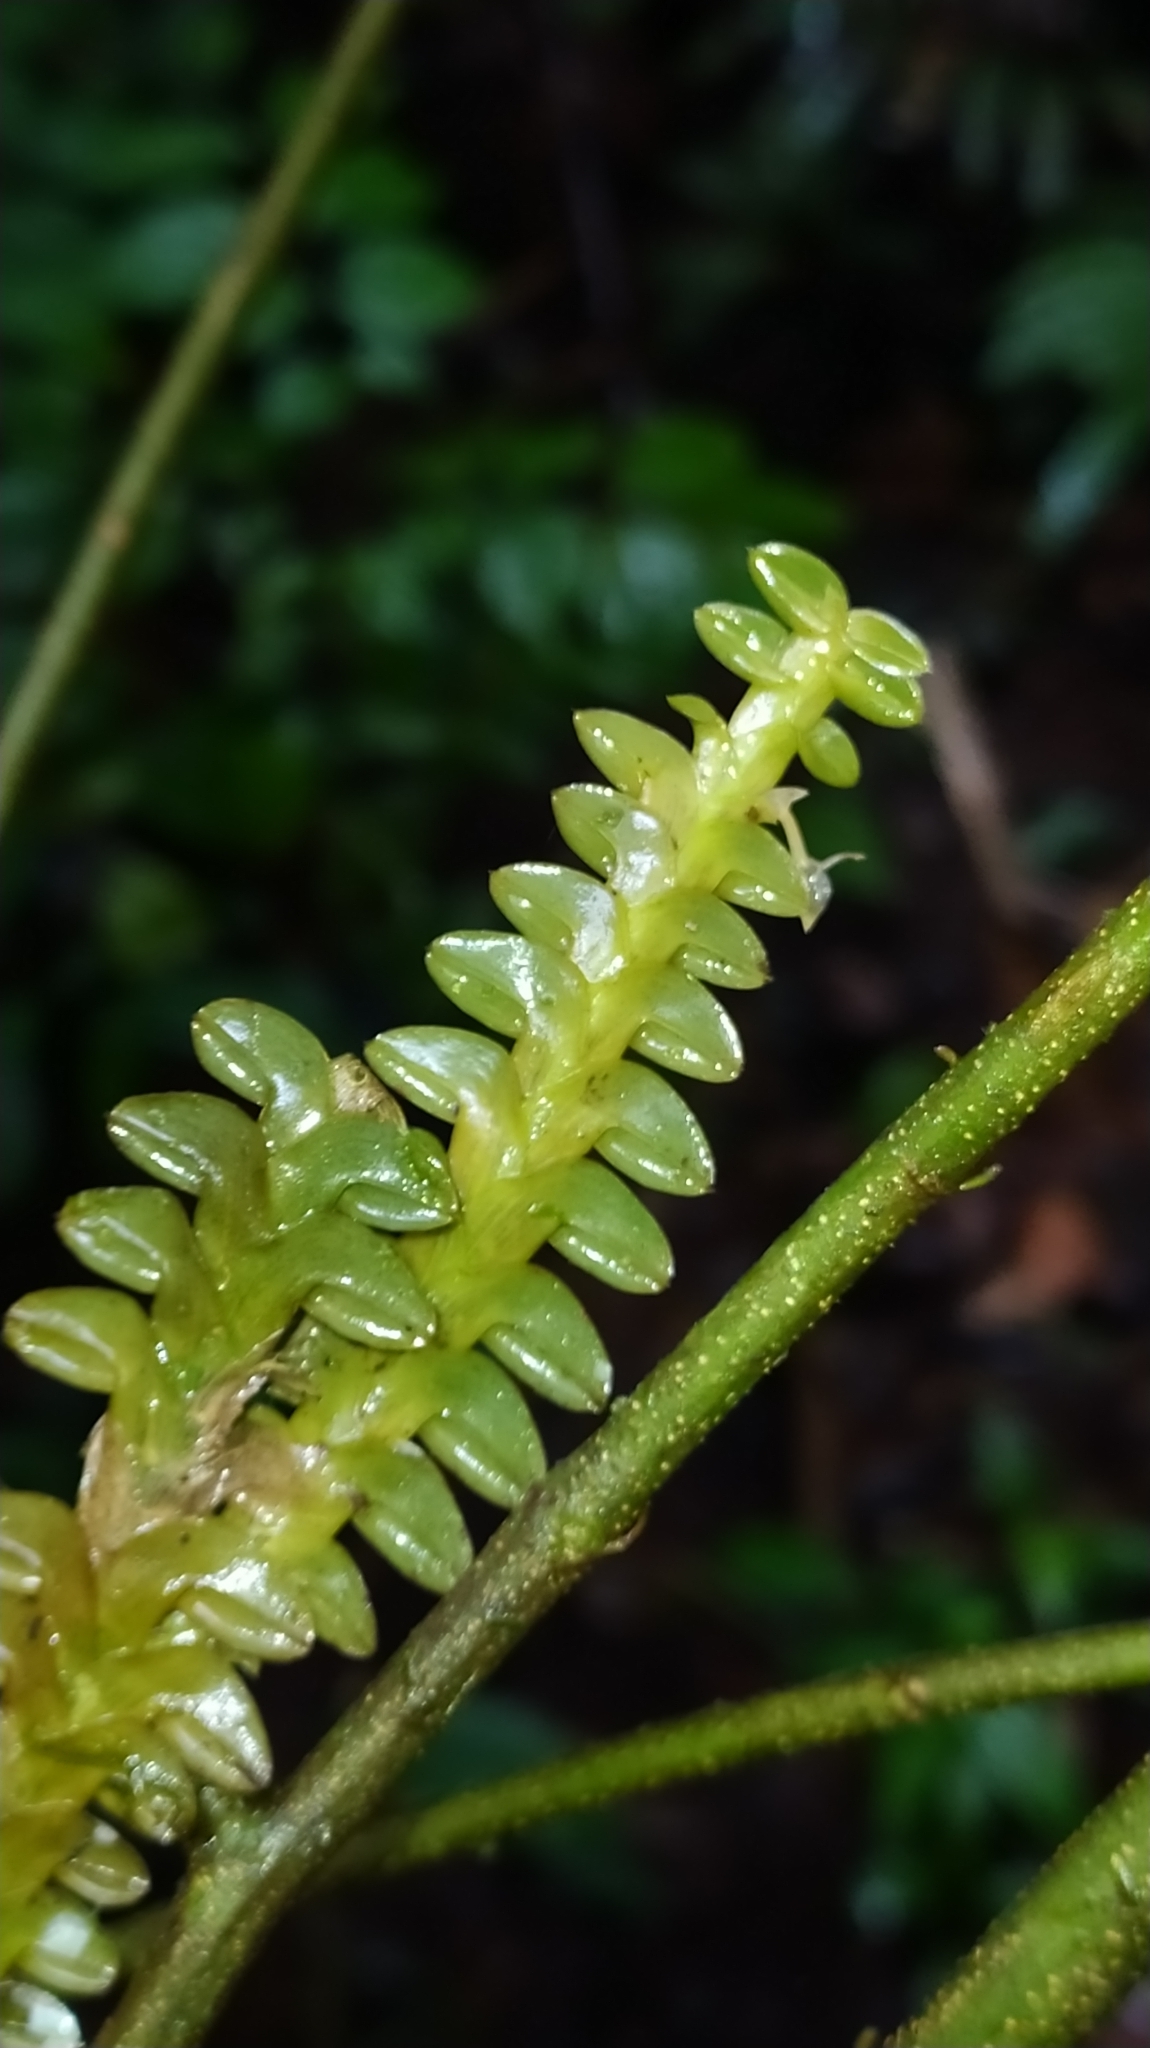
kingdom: Plantae
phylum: Tracheophyta
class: Liliopsida
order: Asparagales
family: Orchidaceae
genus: Dichaea
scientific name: Dichaea pendula
